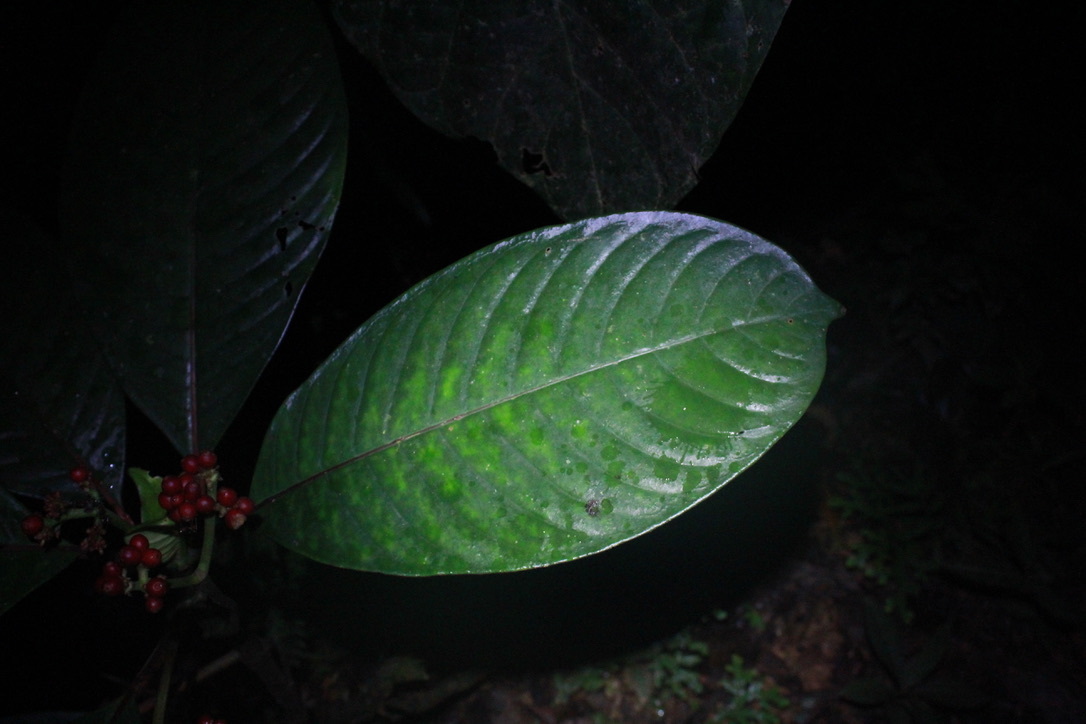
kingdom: Plantae
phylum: Tracheophyta
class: Magnoliopsida
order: Gentianales
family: Rubiaceae
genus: Notopleura
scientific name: Notopleura uliginosa
